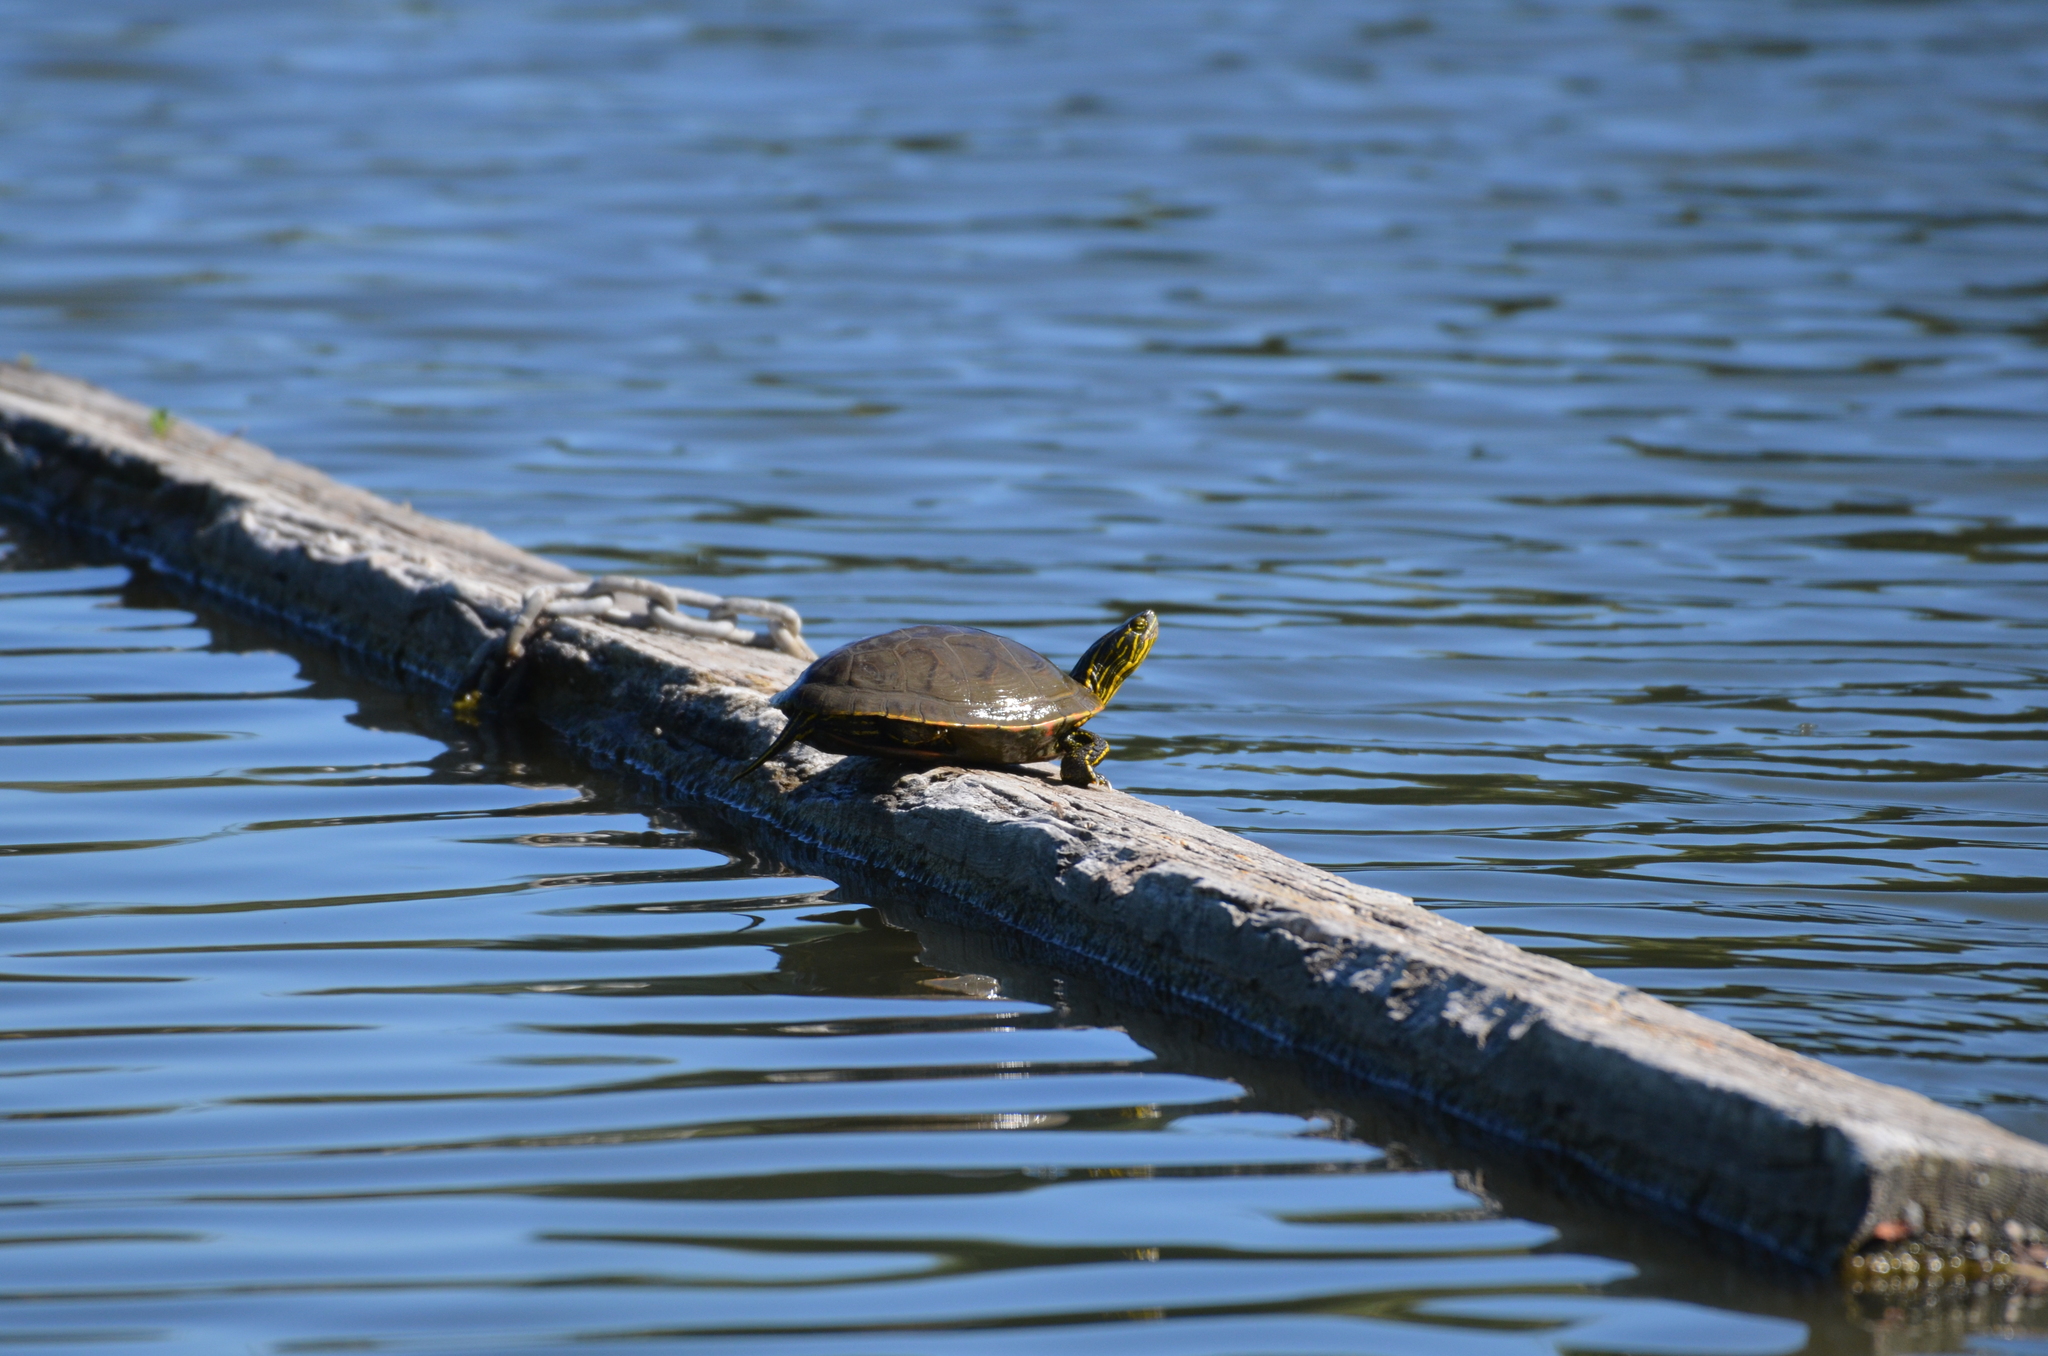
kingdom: Animalia
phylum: Chordata
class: Testudines
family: Emydidae
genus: Chrysemys
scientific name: Chrysemys picta
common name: Painted turtle
